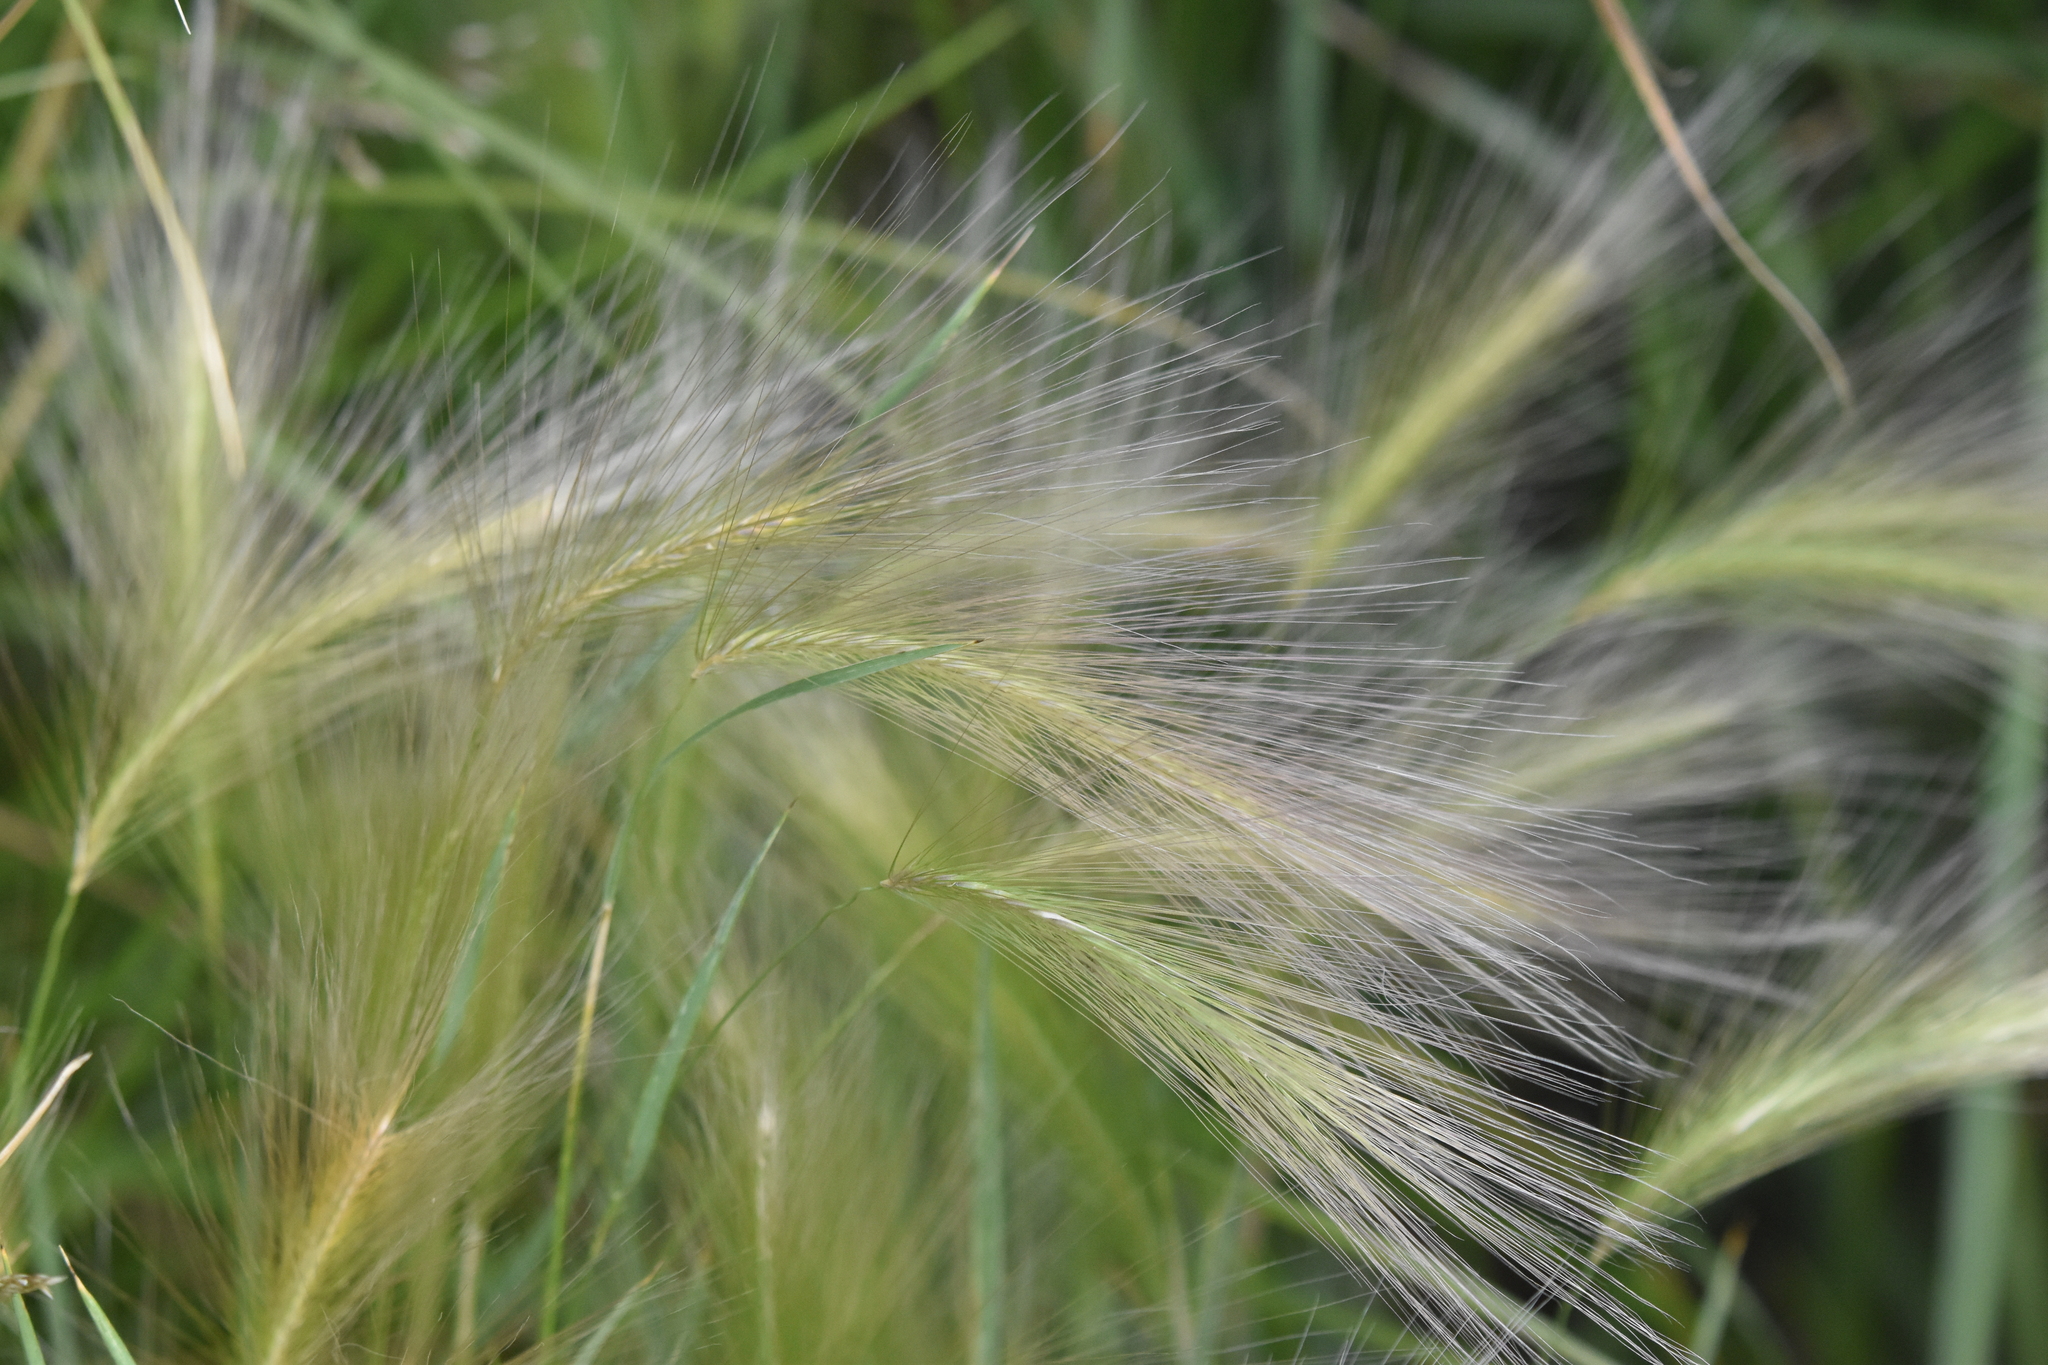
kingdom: Plantae
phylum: Tracheophyta
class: Liliopsida
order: Poales
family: Poaceae
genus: Hordeum
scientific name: Hordeum jubatum
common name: Foxtail barley
